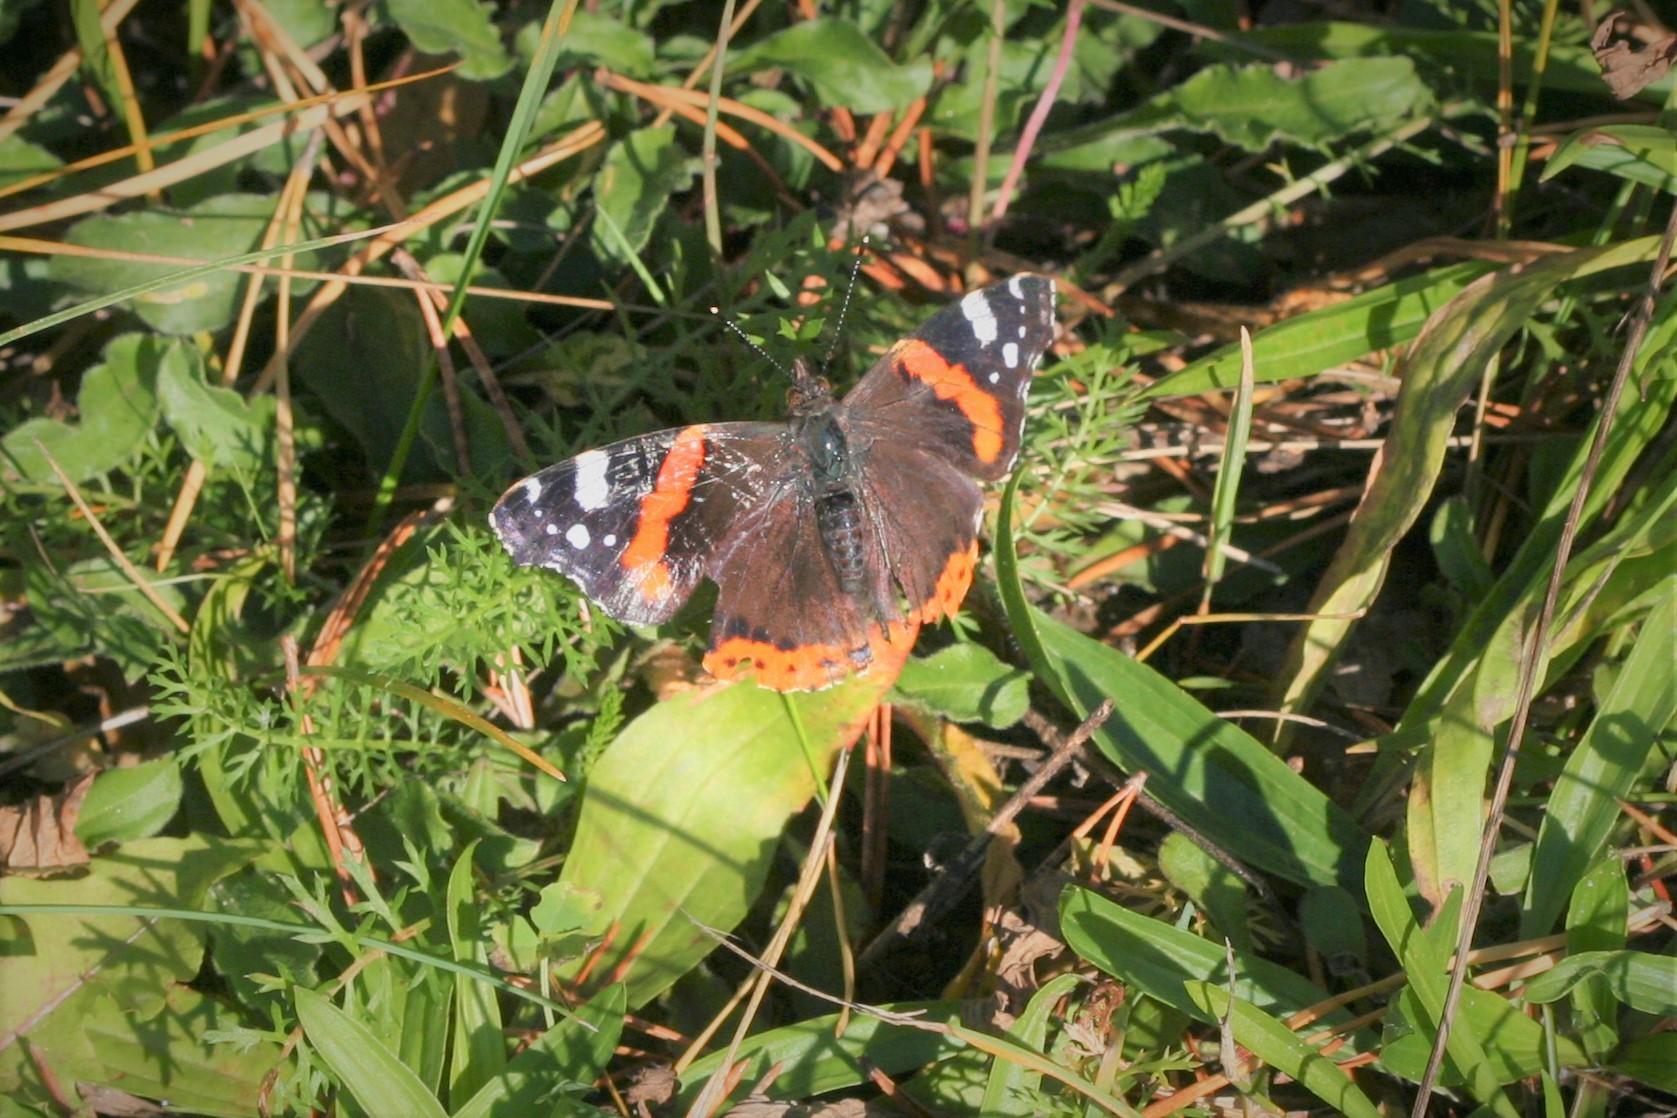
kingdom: Animalia
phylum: Arthropoda
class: Insecta
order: Lepidoptera
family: Nymphalidae
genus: Vanessa
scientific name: Vanessa atalanta
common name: Red admiral
